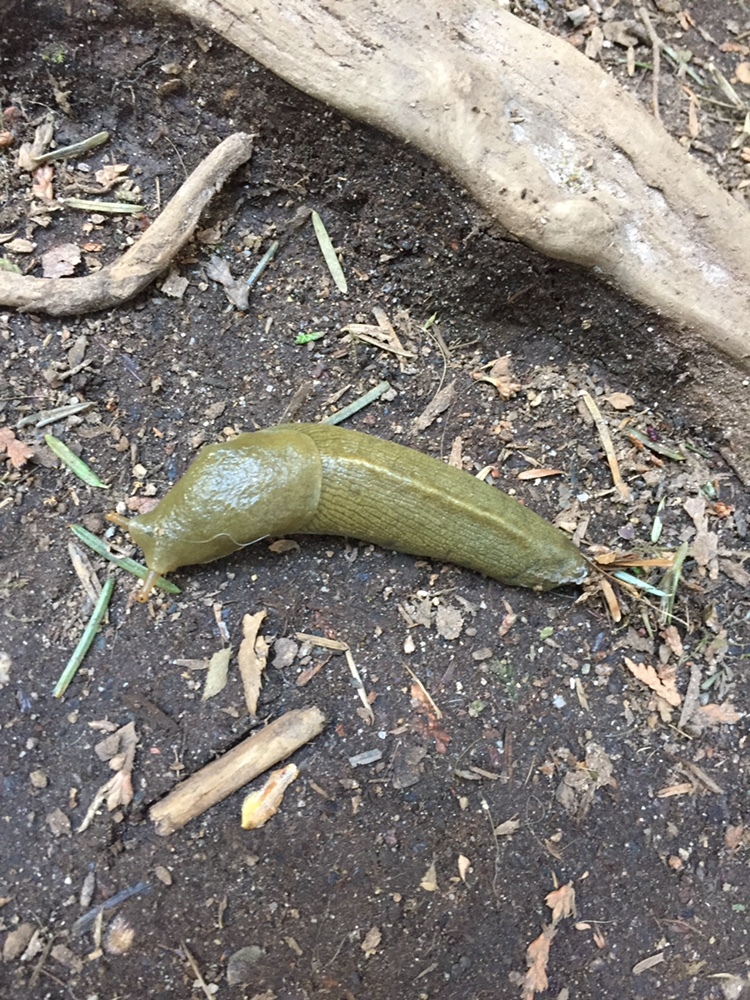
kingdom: Animalia
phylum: Mollusca
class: Gastropoda
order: Stylommatophora
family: Ariolimacidae
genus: Ariolimax
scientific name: Ariolimax columbianus
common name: Pacific banana slug
